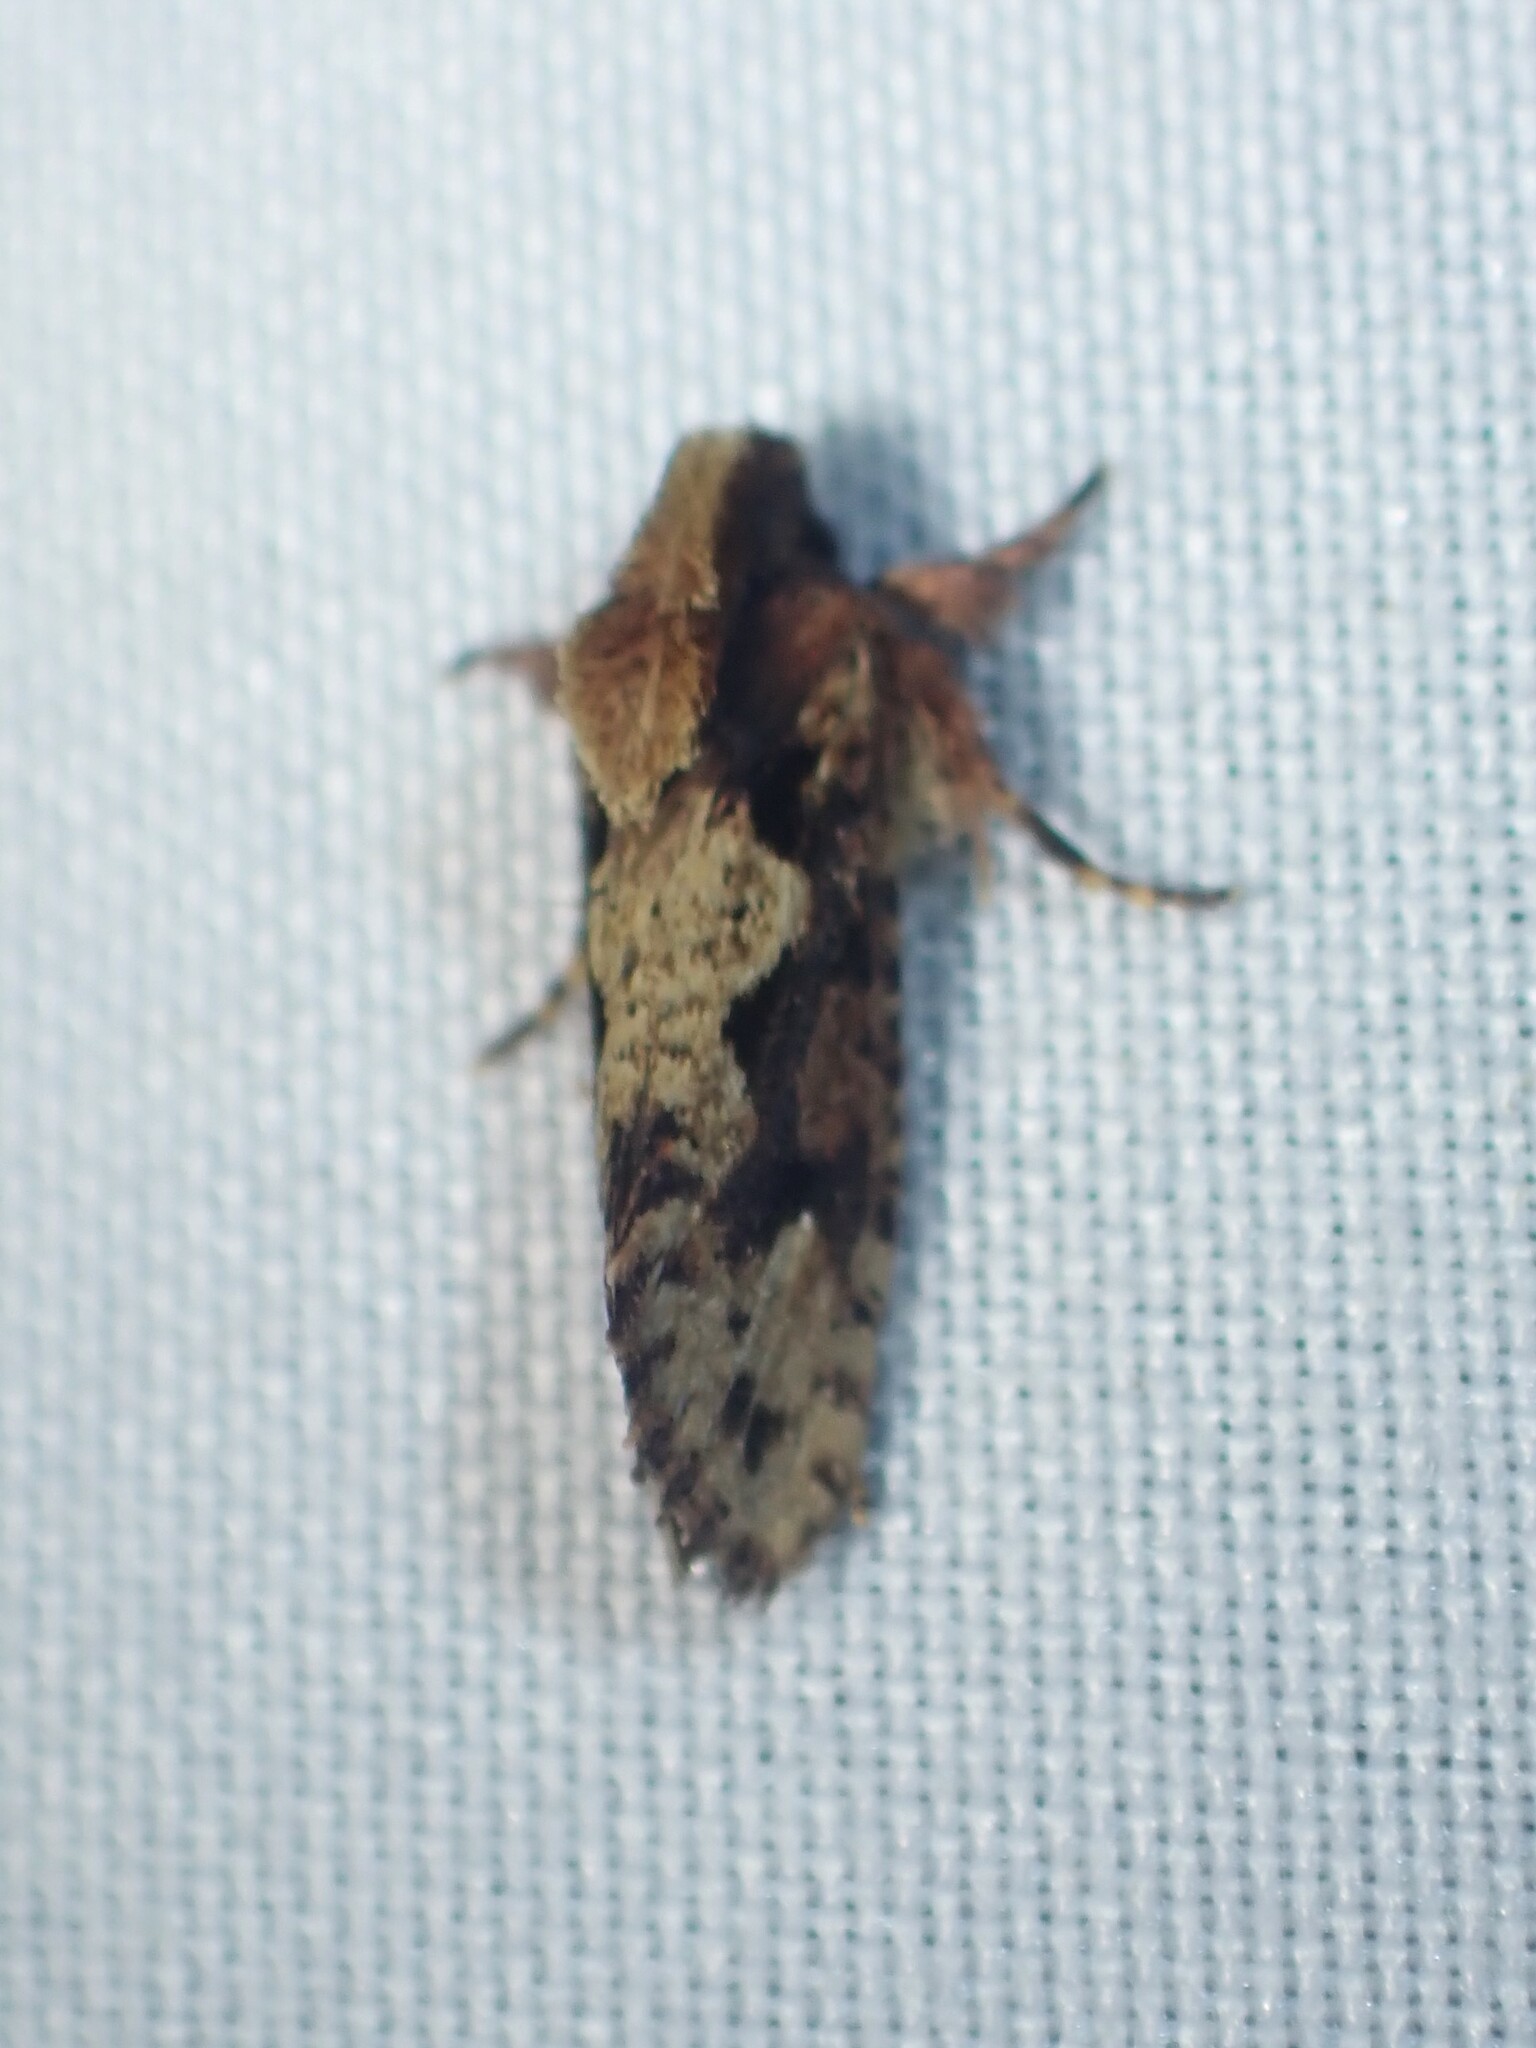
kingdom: Animalia
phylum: Arthropoda
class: Insecta
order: Lepidoptera
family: Tineidae
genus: Acrolophus
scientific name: Acrolophus walsinghami
